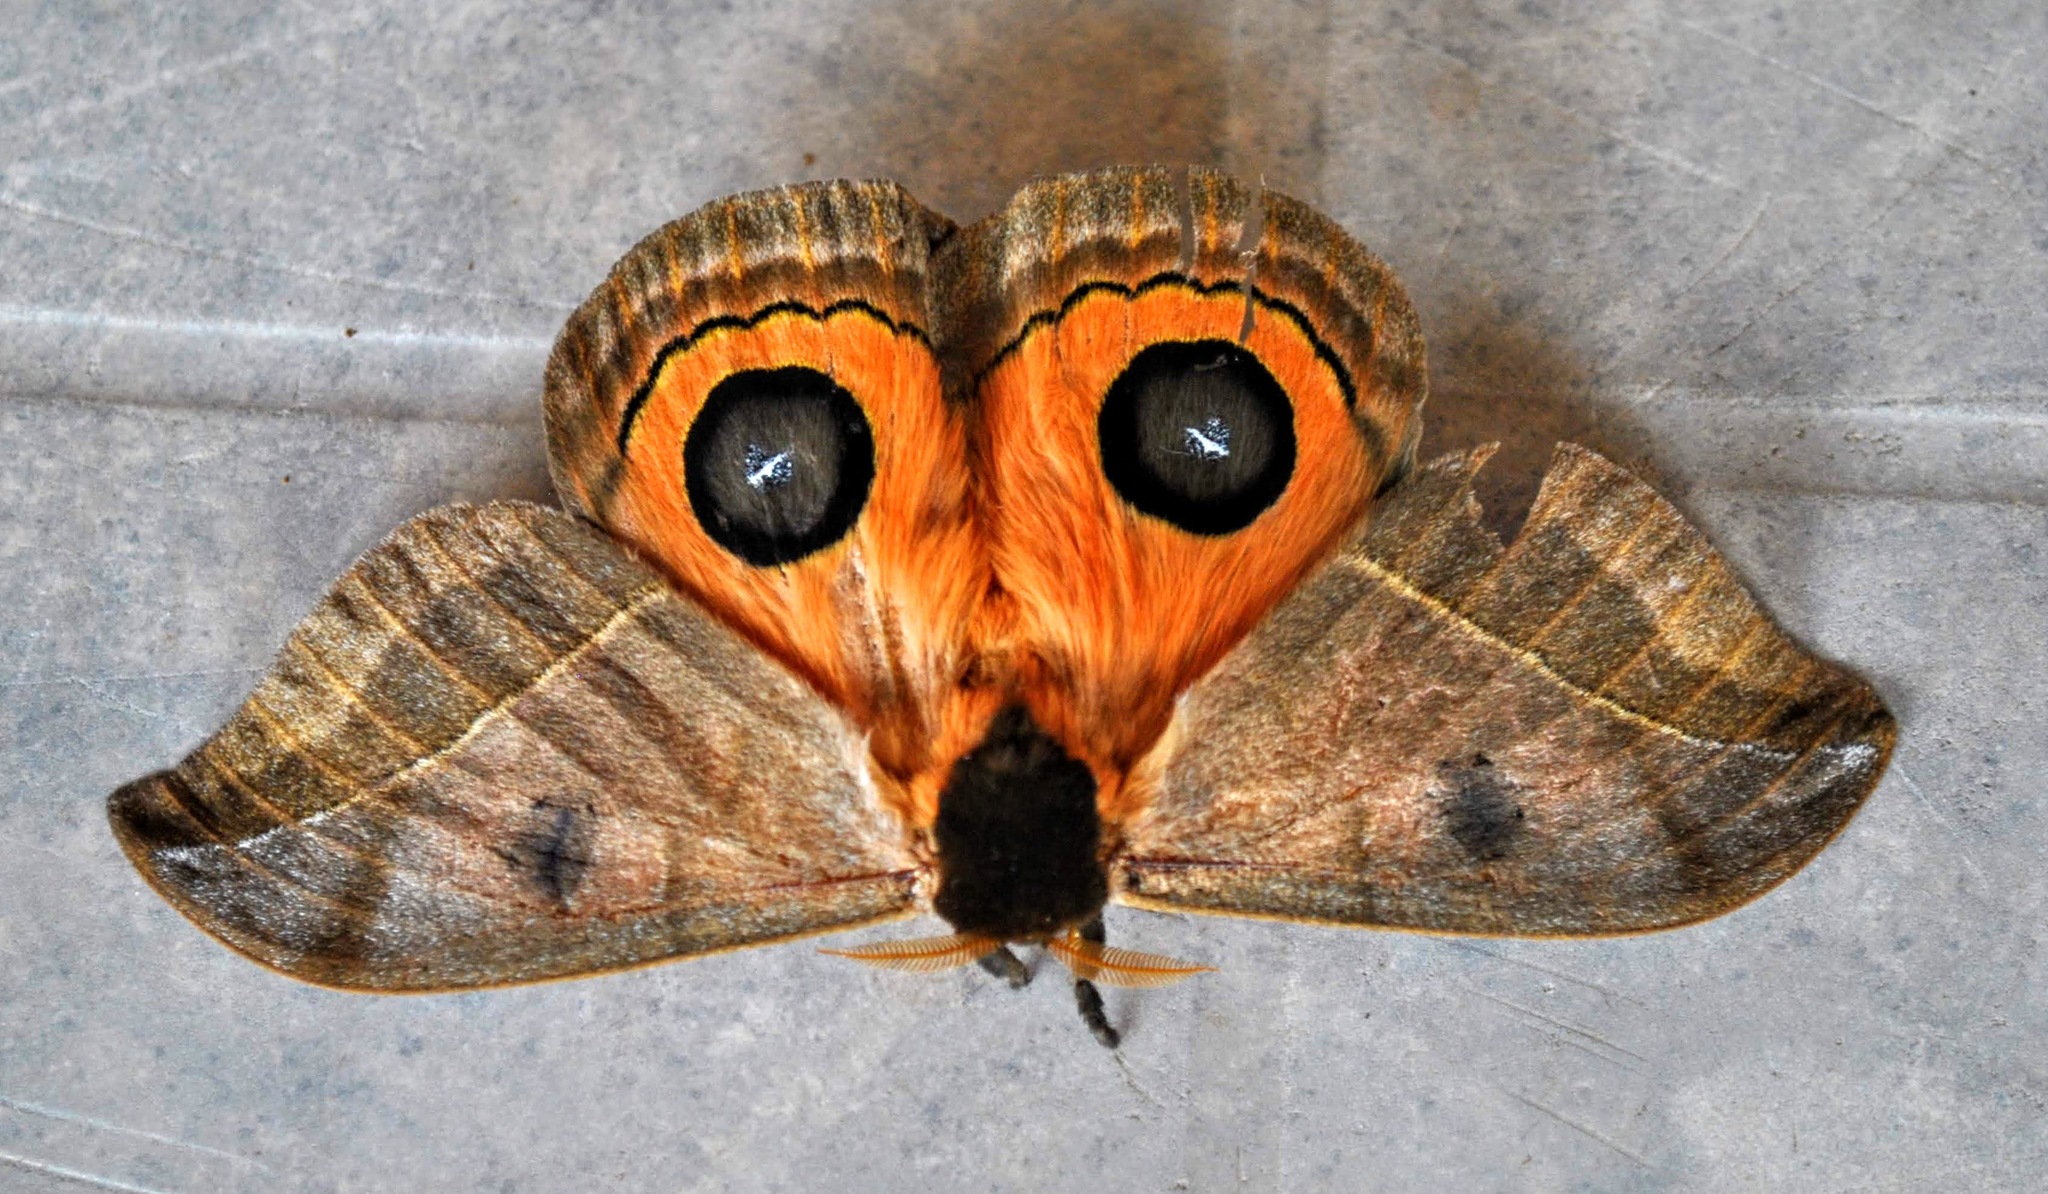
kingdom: Animalia
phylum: Arthropoda
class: Insecta
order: Lepidoptera
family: Saturniidae
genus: Automeris
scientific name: Automeris illustris
